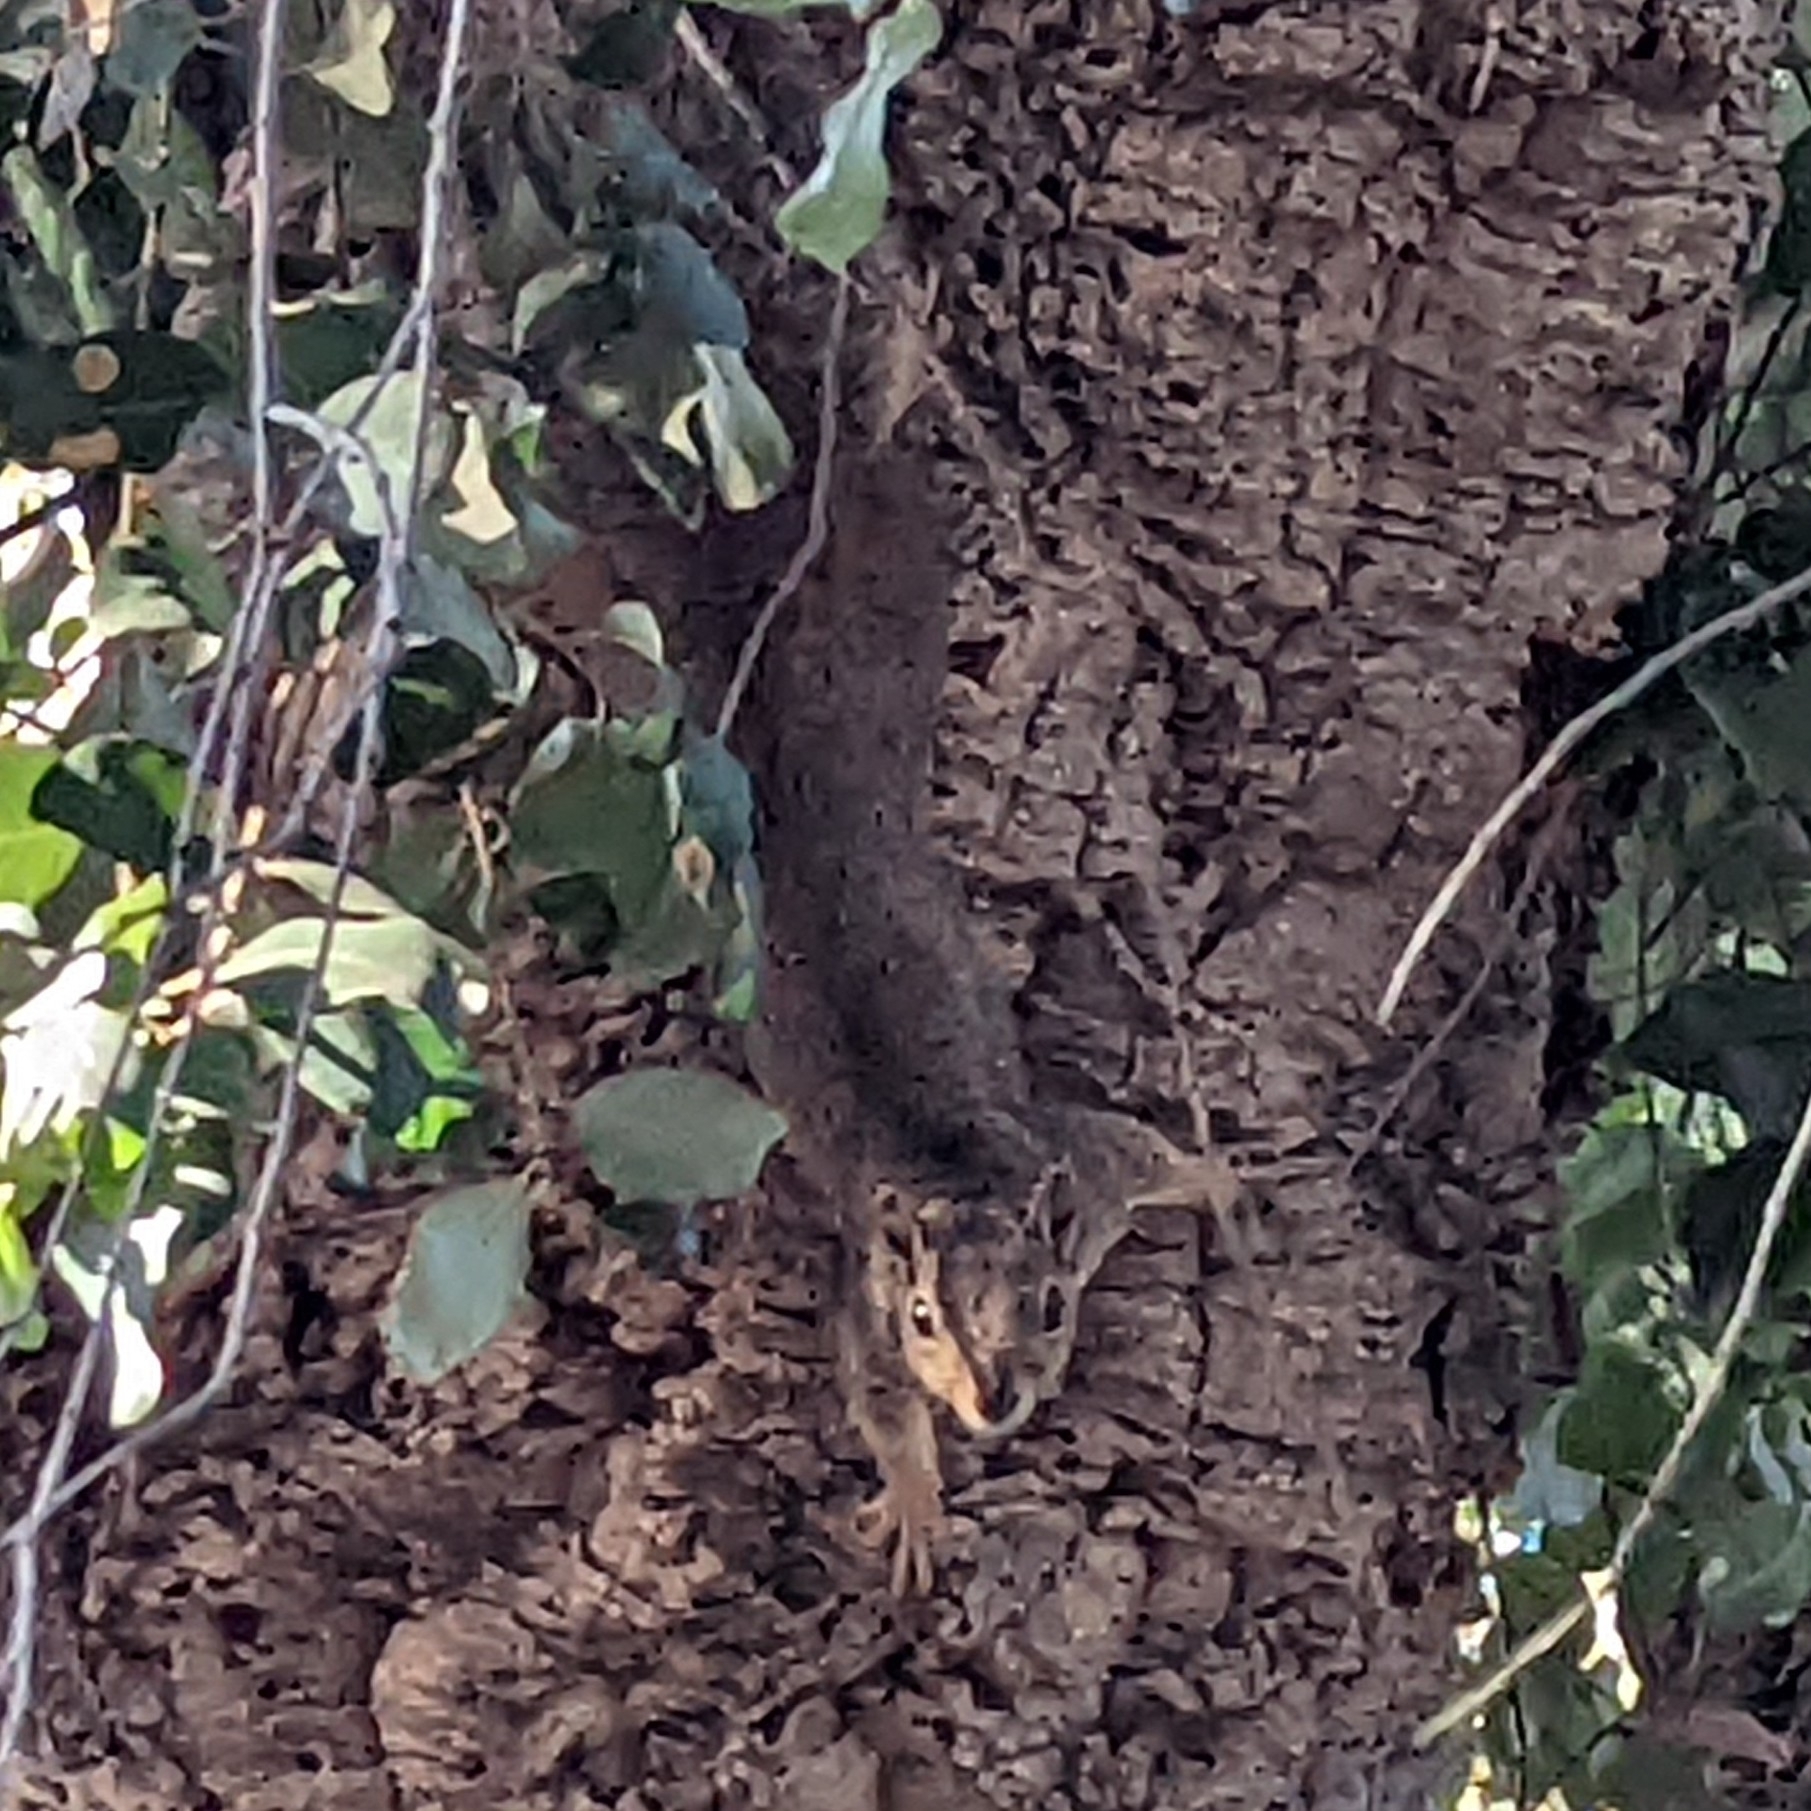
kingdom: Animalia
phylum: Chordata
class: Mammalia
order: Rodentia
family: Sciuridae
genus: Sciurus
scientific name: Sciurus niger
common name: Fox squirrel
